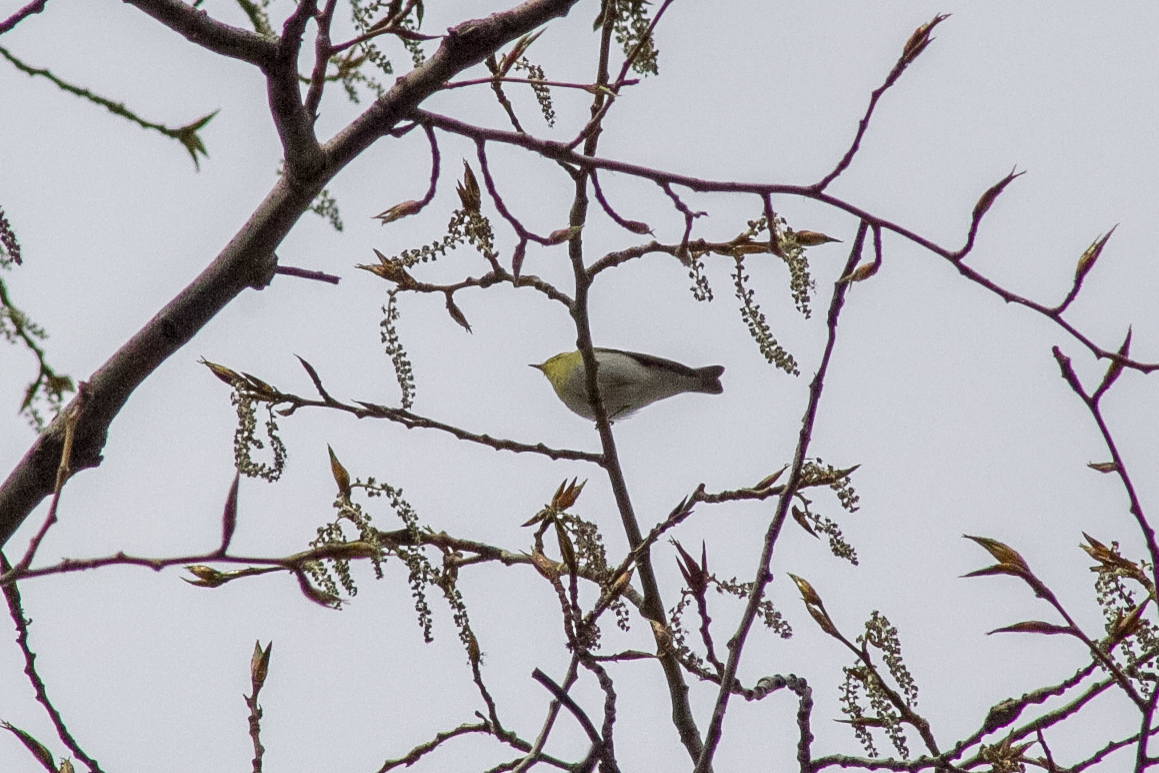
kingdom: Animalia
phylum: Chordata
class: Aves
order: Passeriformes
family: Phylloscopidae
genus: Phylloscopus
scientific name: Phylloscopus sibillatrix
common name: Wood warbler
